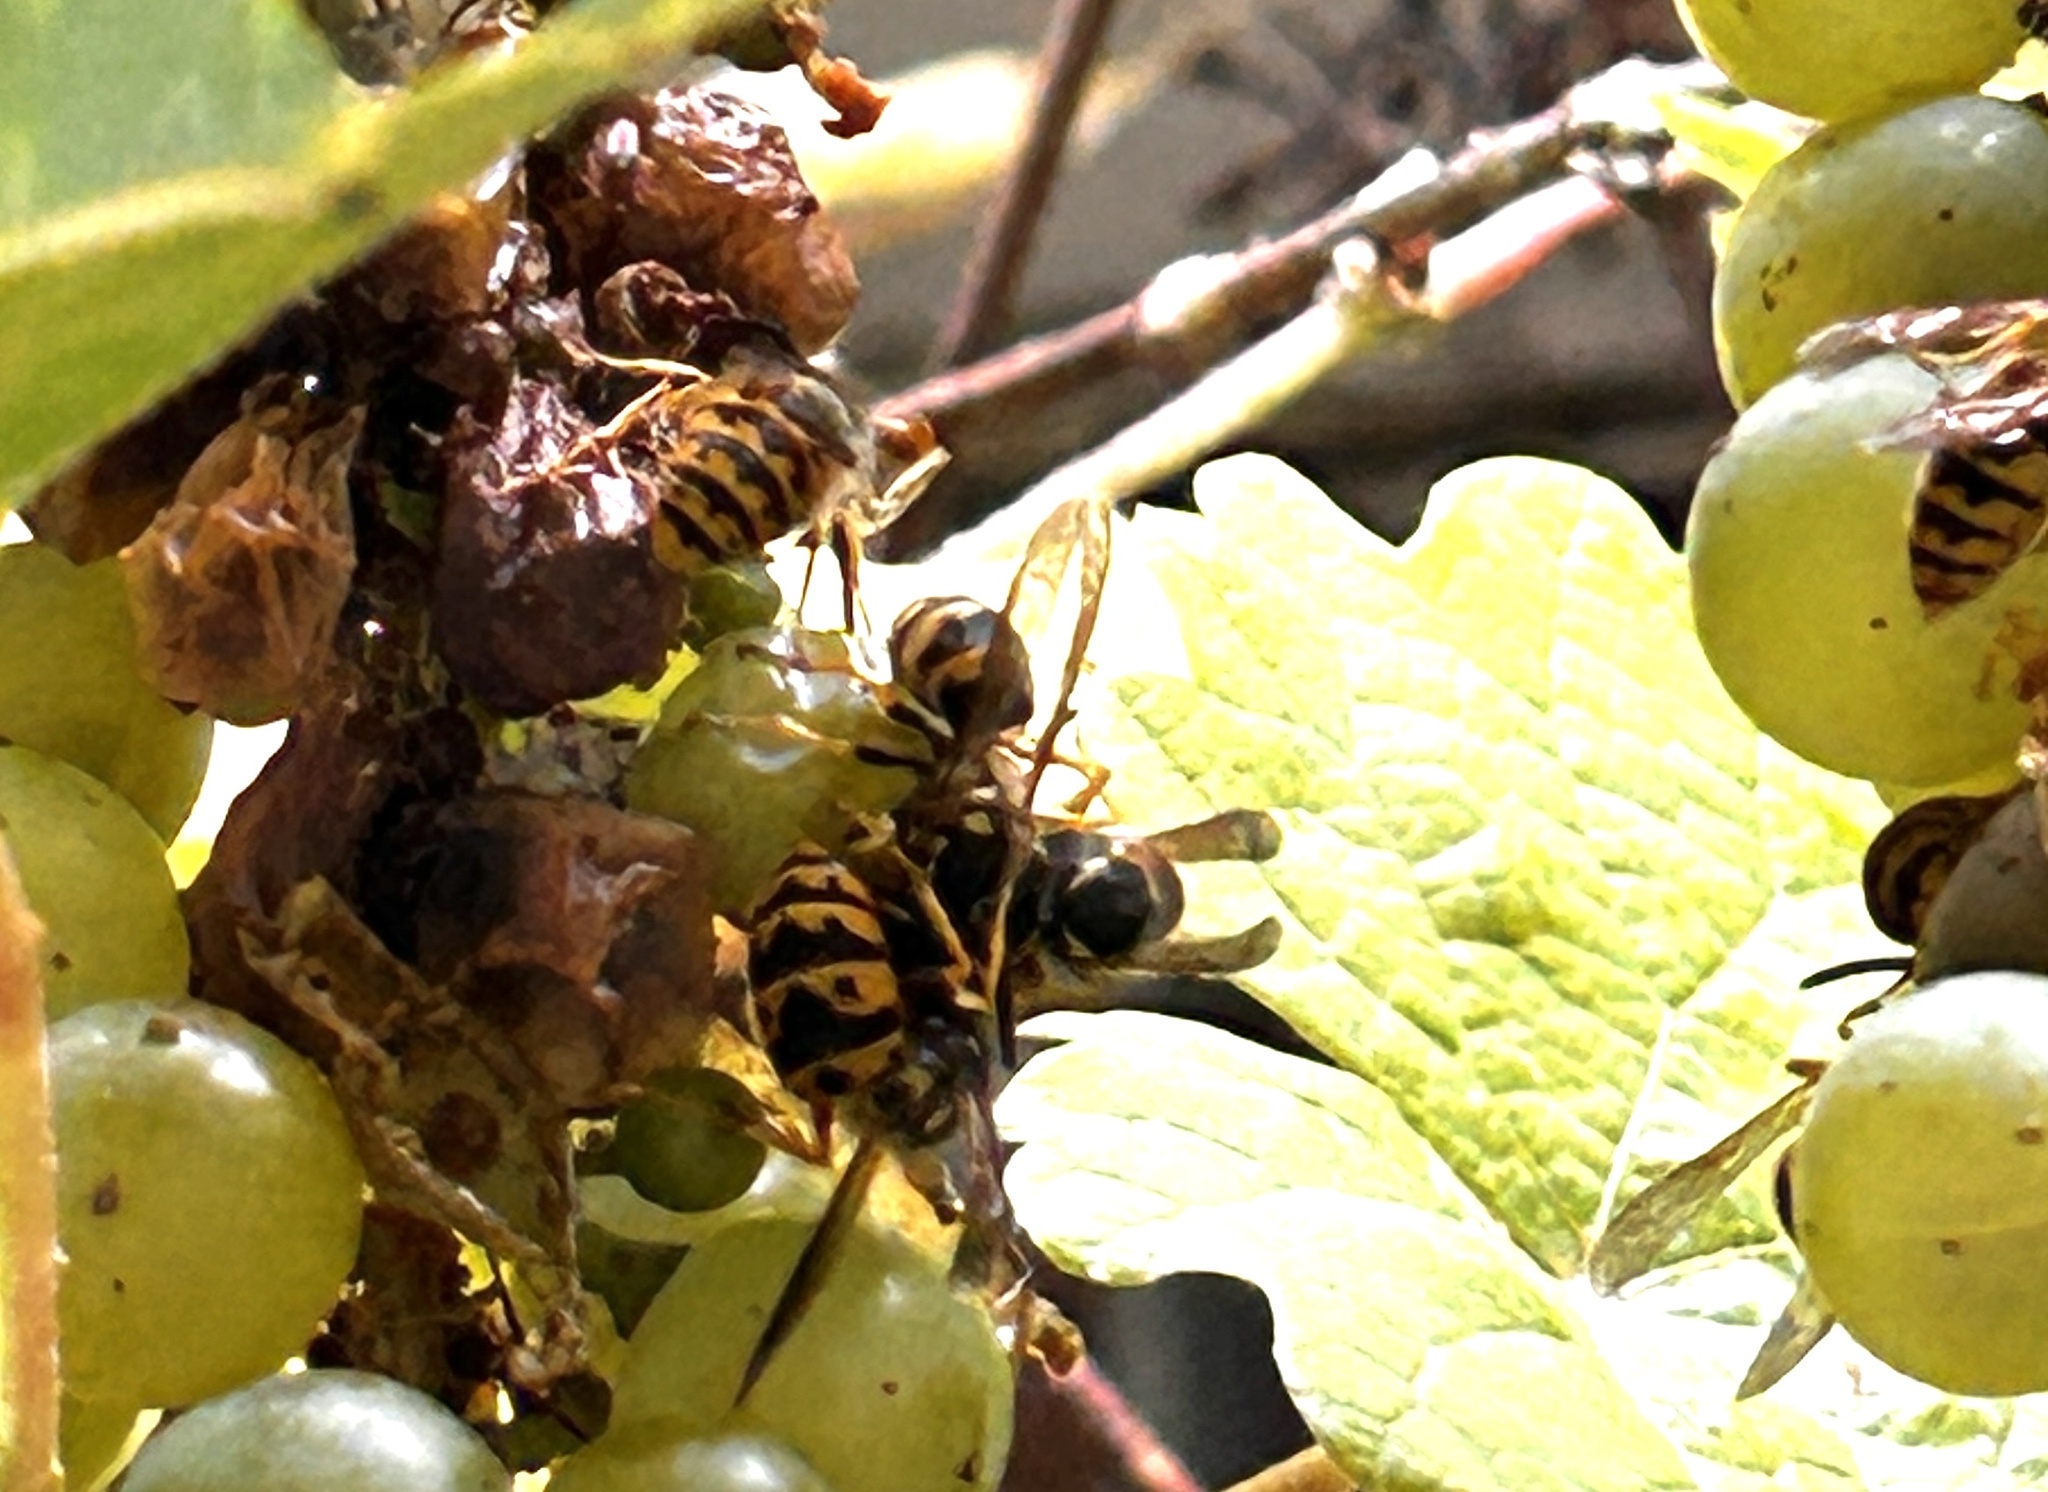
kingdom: Animalia
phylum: Arthropoda
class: Insecta
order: Hymenoptera
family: Vespidae
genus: Vespula
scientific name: Vespula germanica
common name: German wasp
